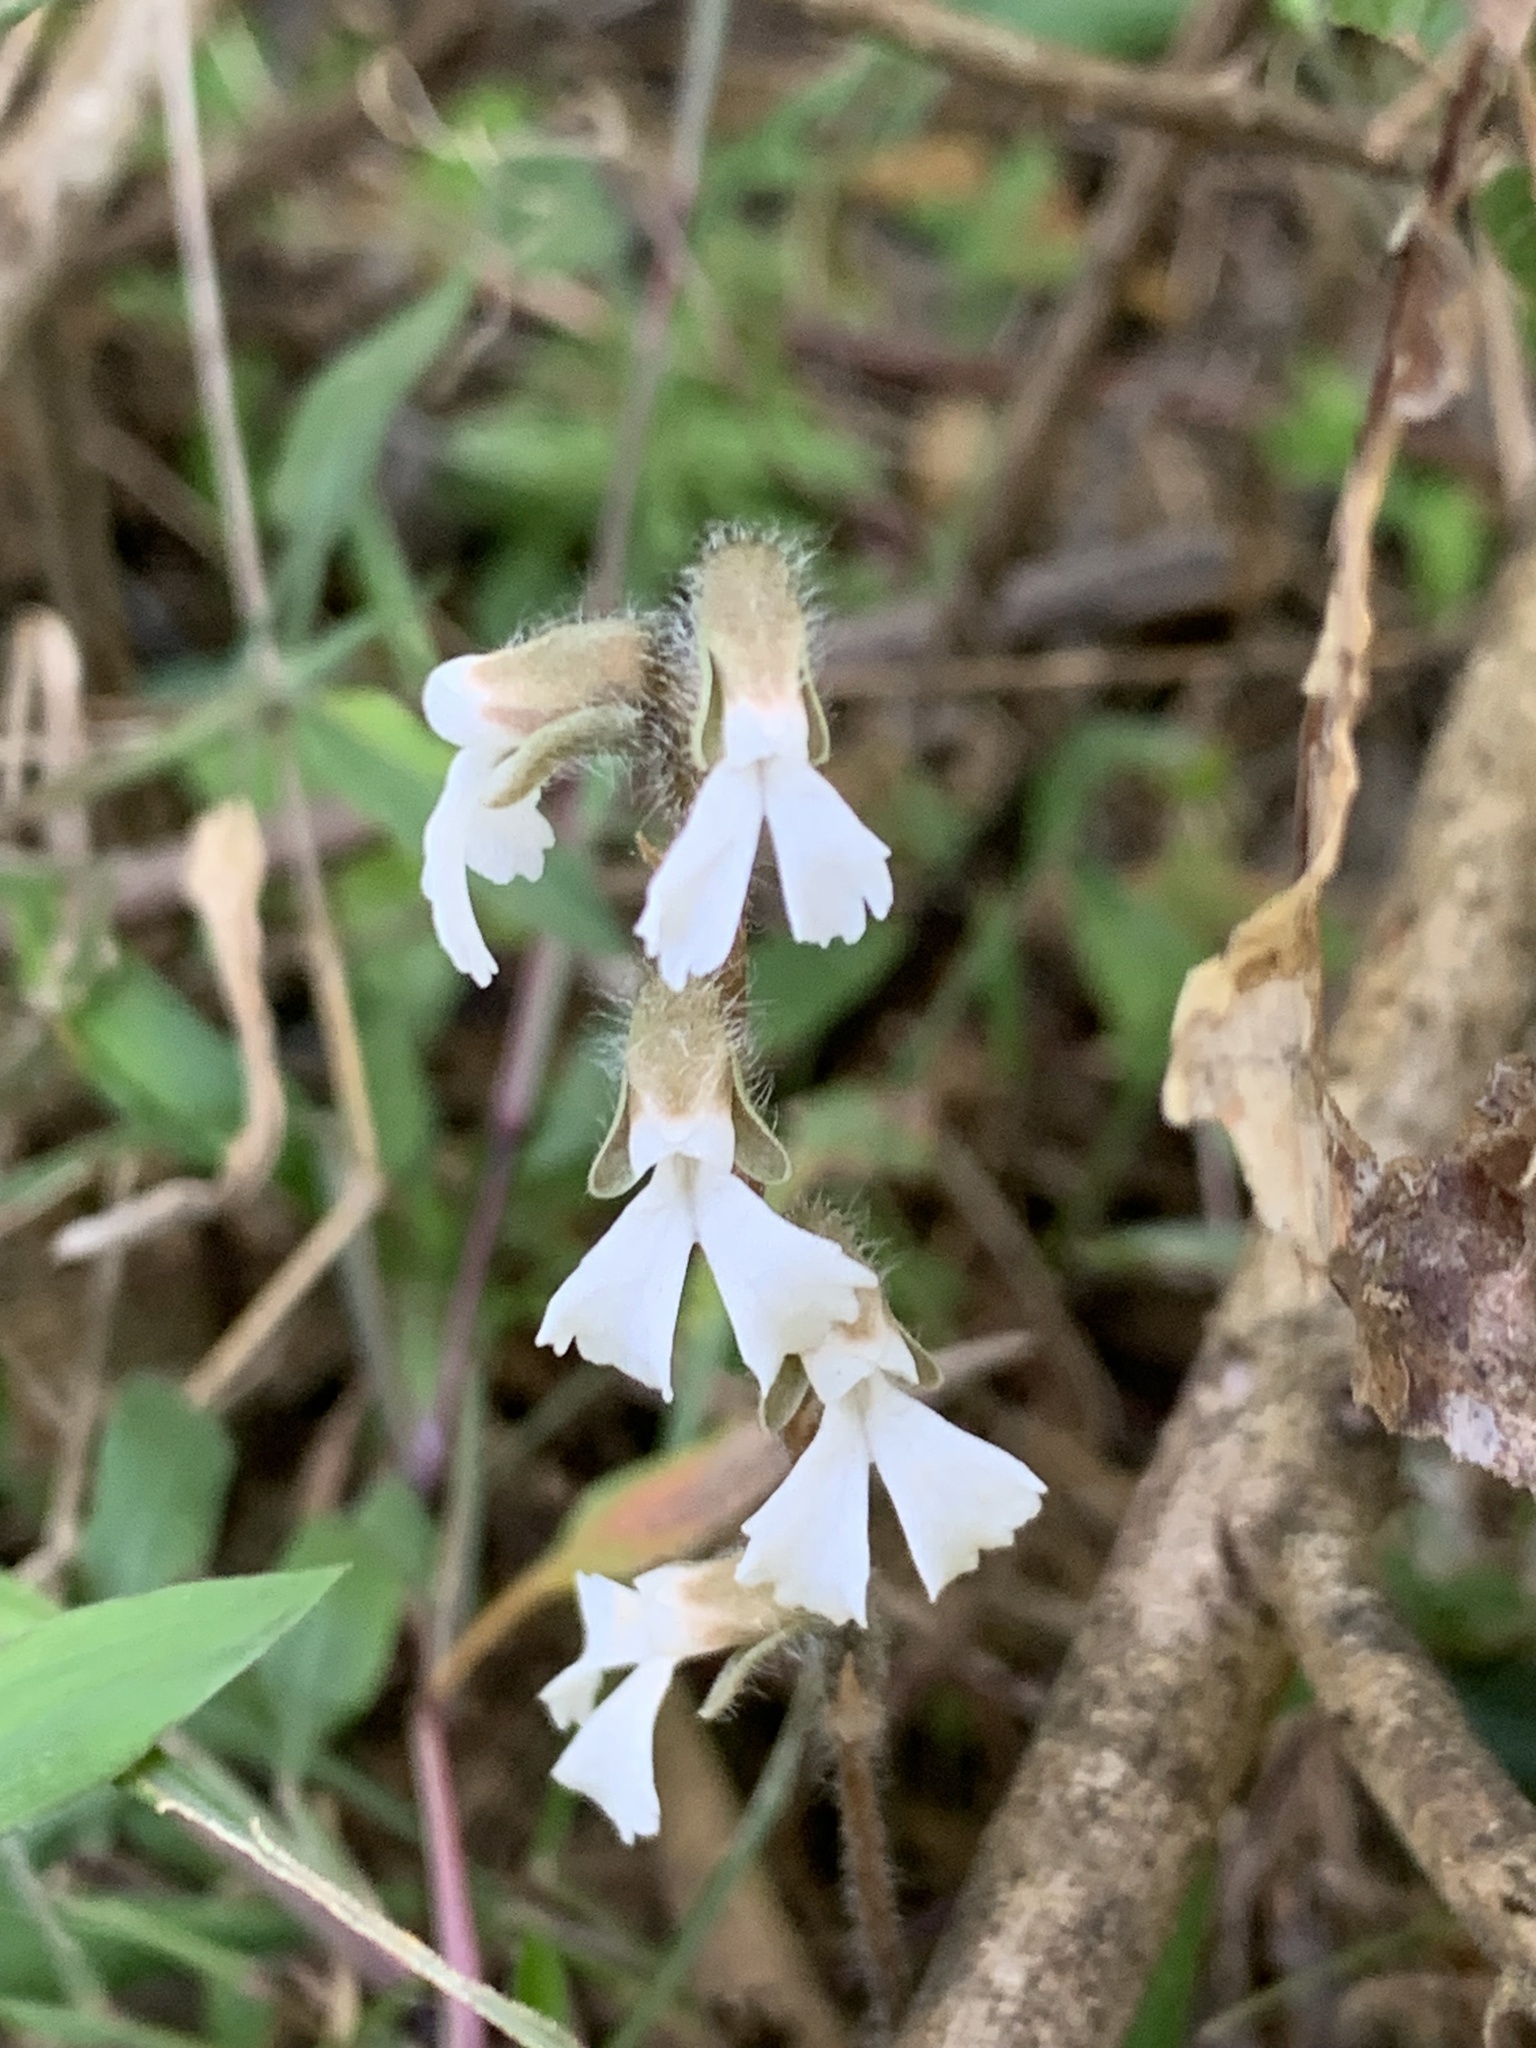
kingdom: Plantae
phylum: Tracheophyta
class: Liliopsida
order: Asparagales
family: Orchidaceae
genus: Zeuxine
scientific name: Zeuxine longilabris
